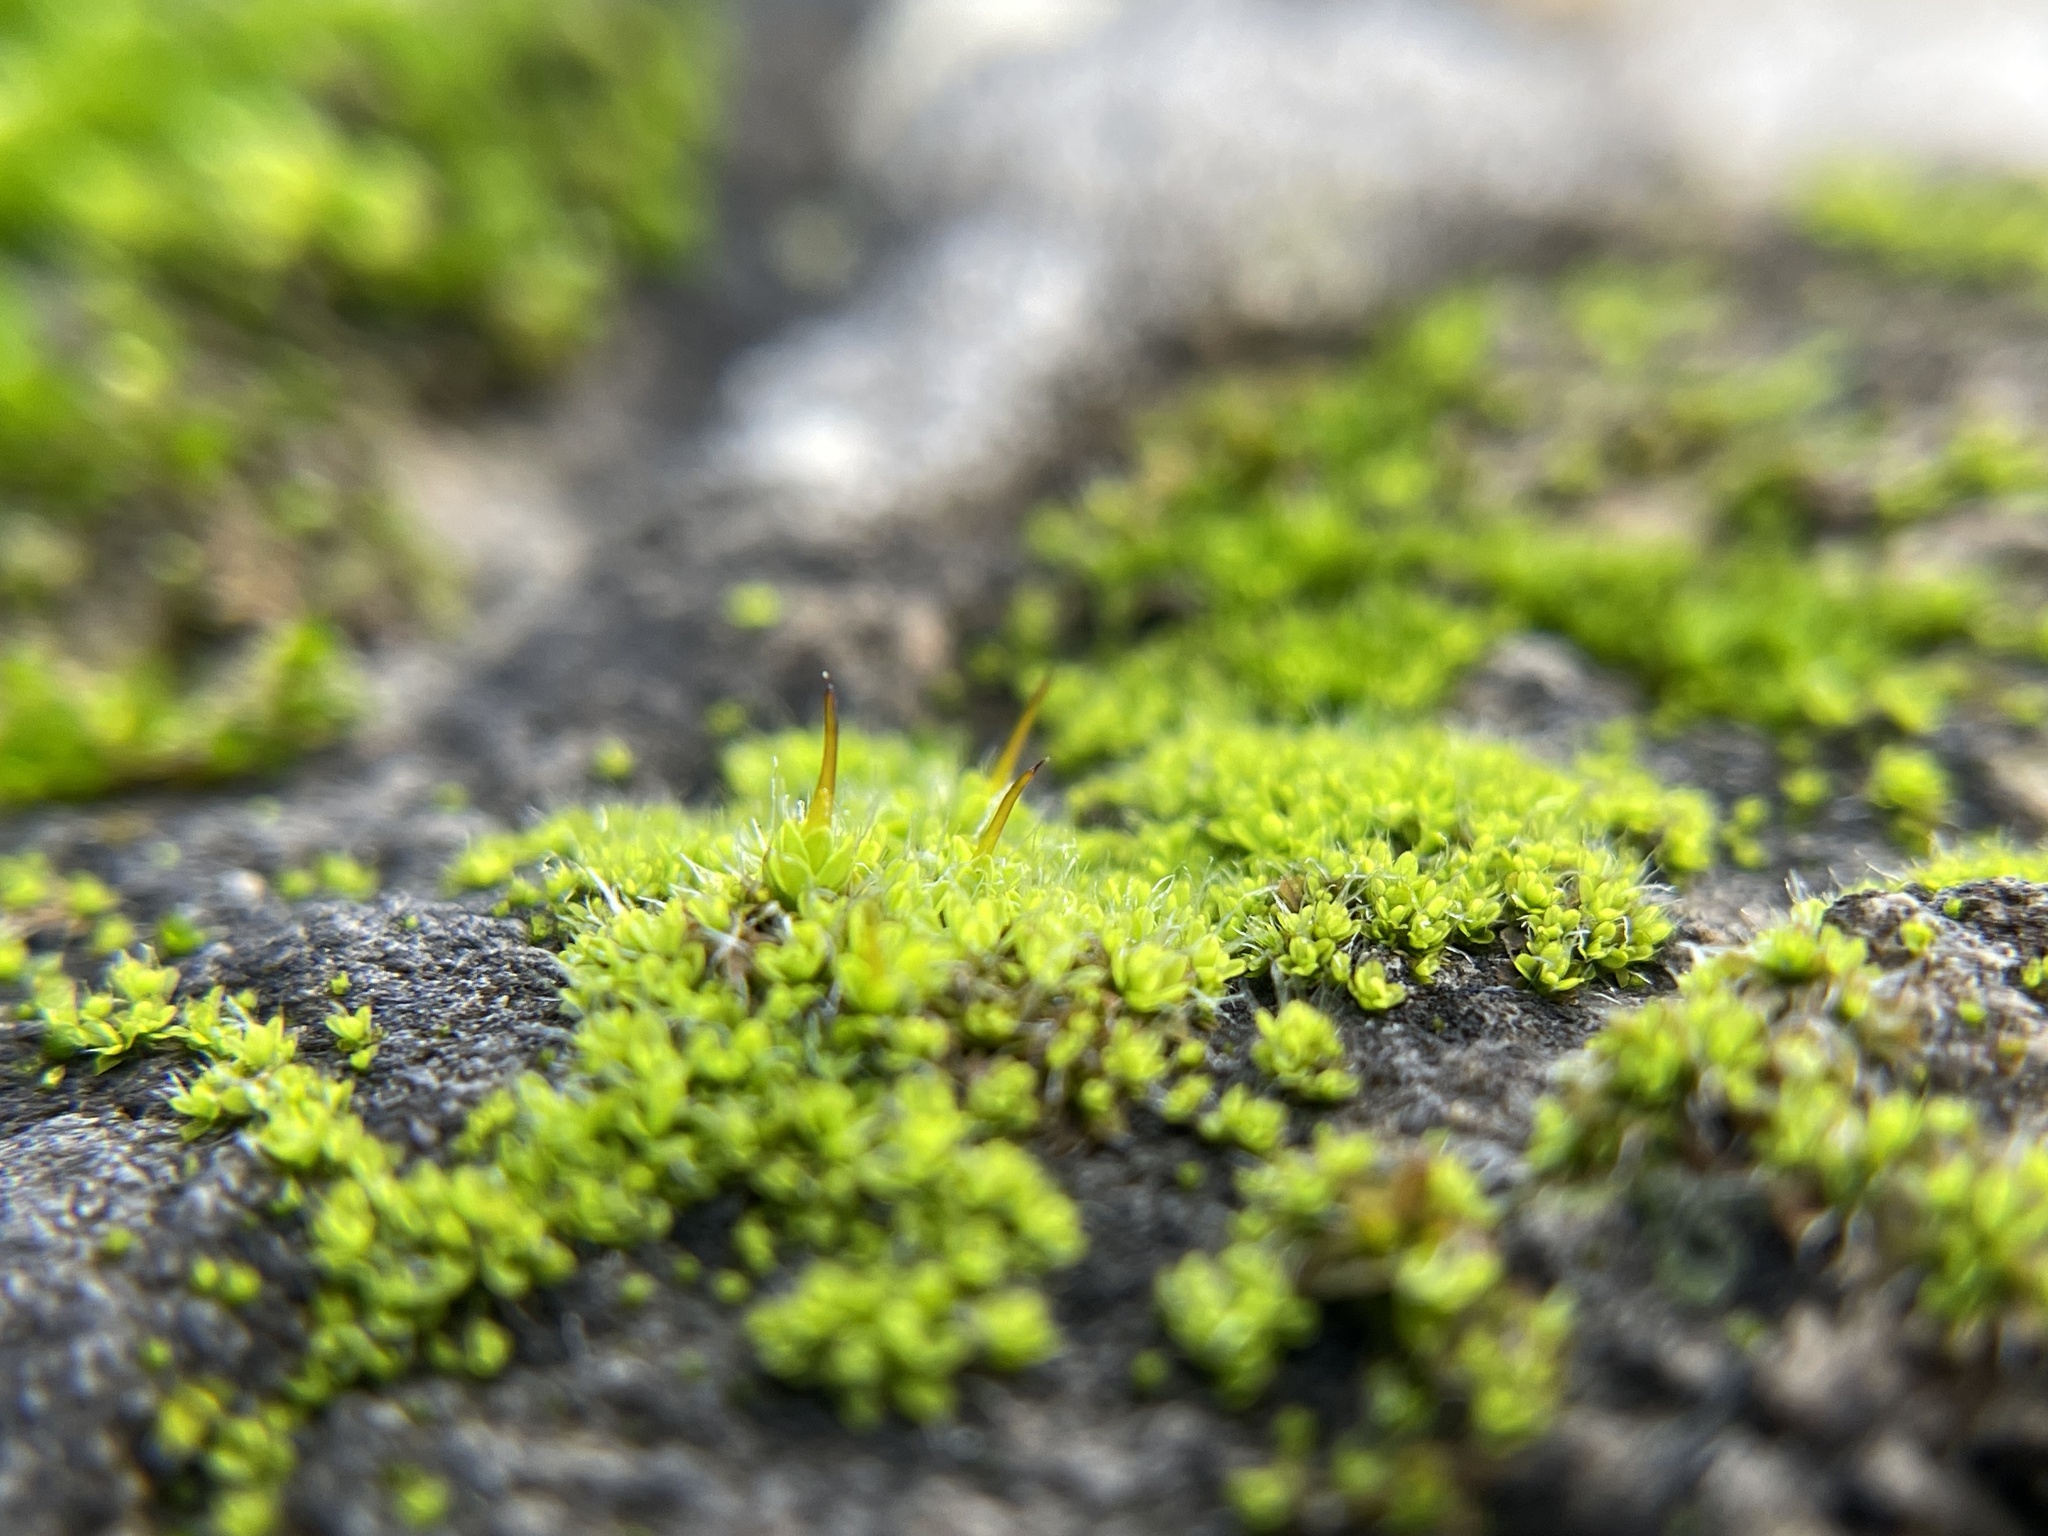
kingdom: Plantae
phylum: Bryophyta
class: Bryopsida
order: Pottiales
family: Pottiaceae
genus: Tortula
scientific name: Tortula muralis
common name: Wall screw-moss
